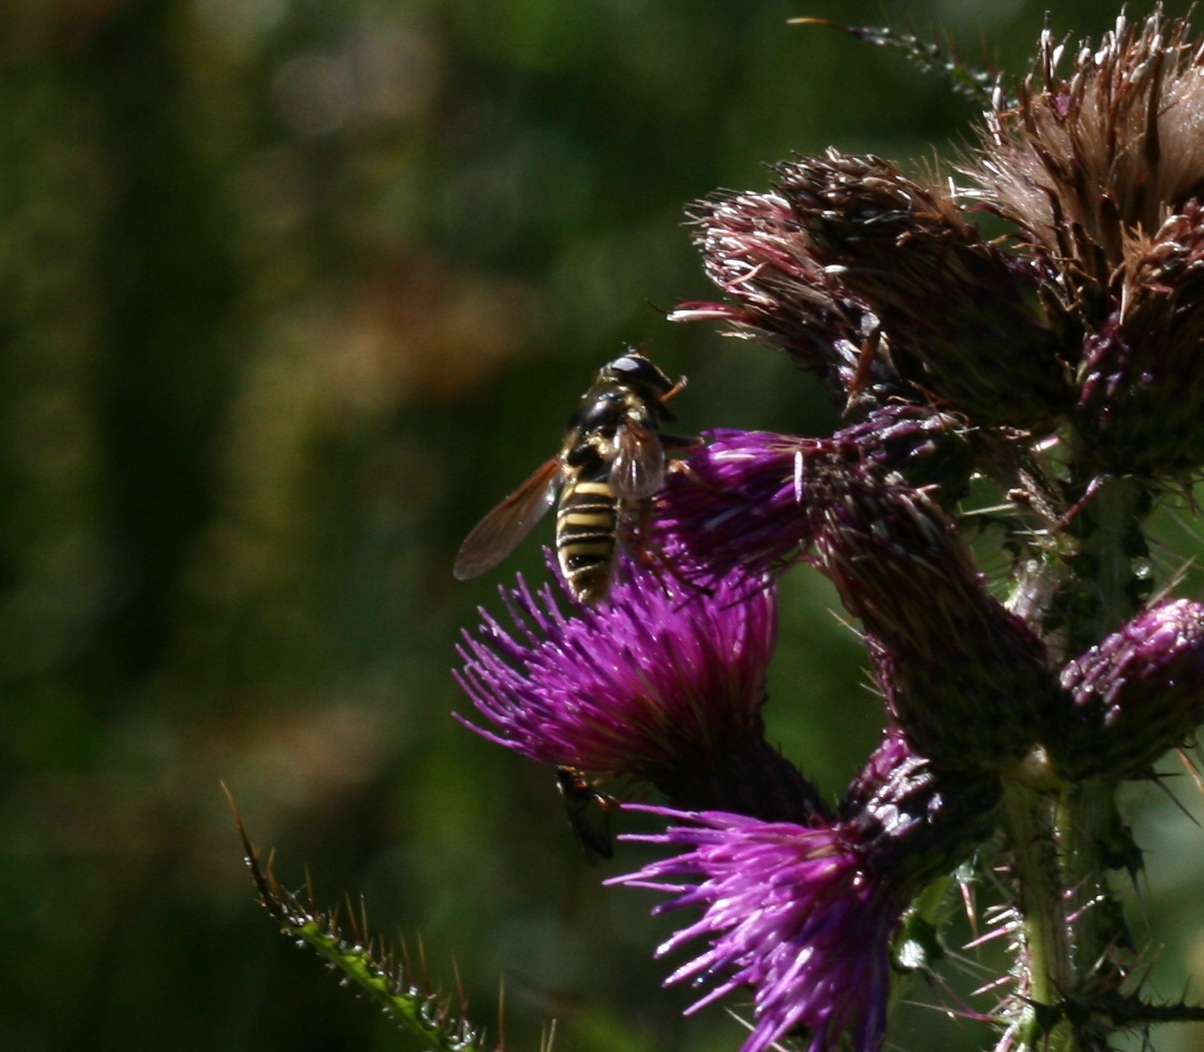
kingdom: Animalia
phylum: Arthropoda
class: Insecta
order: Diptera
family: Syrphidae
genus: Sericomyia
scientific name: Sericomyia silentis
